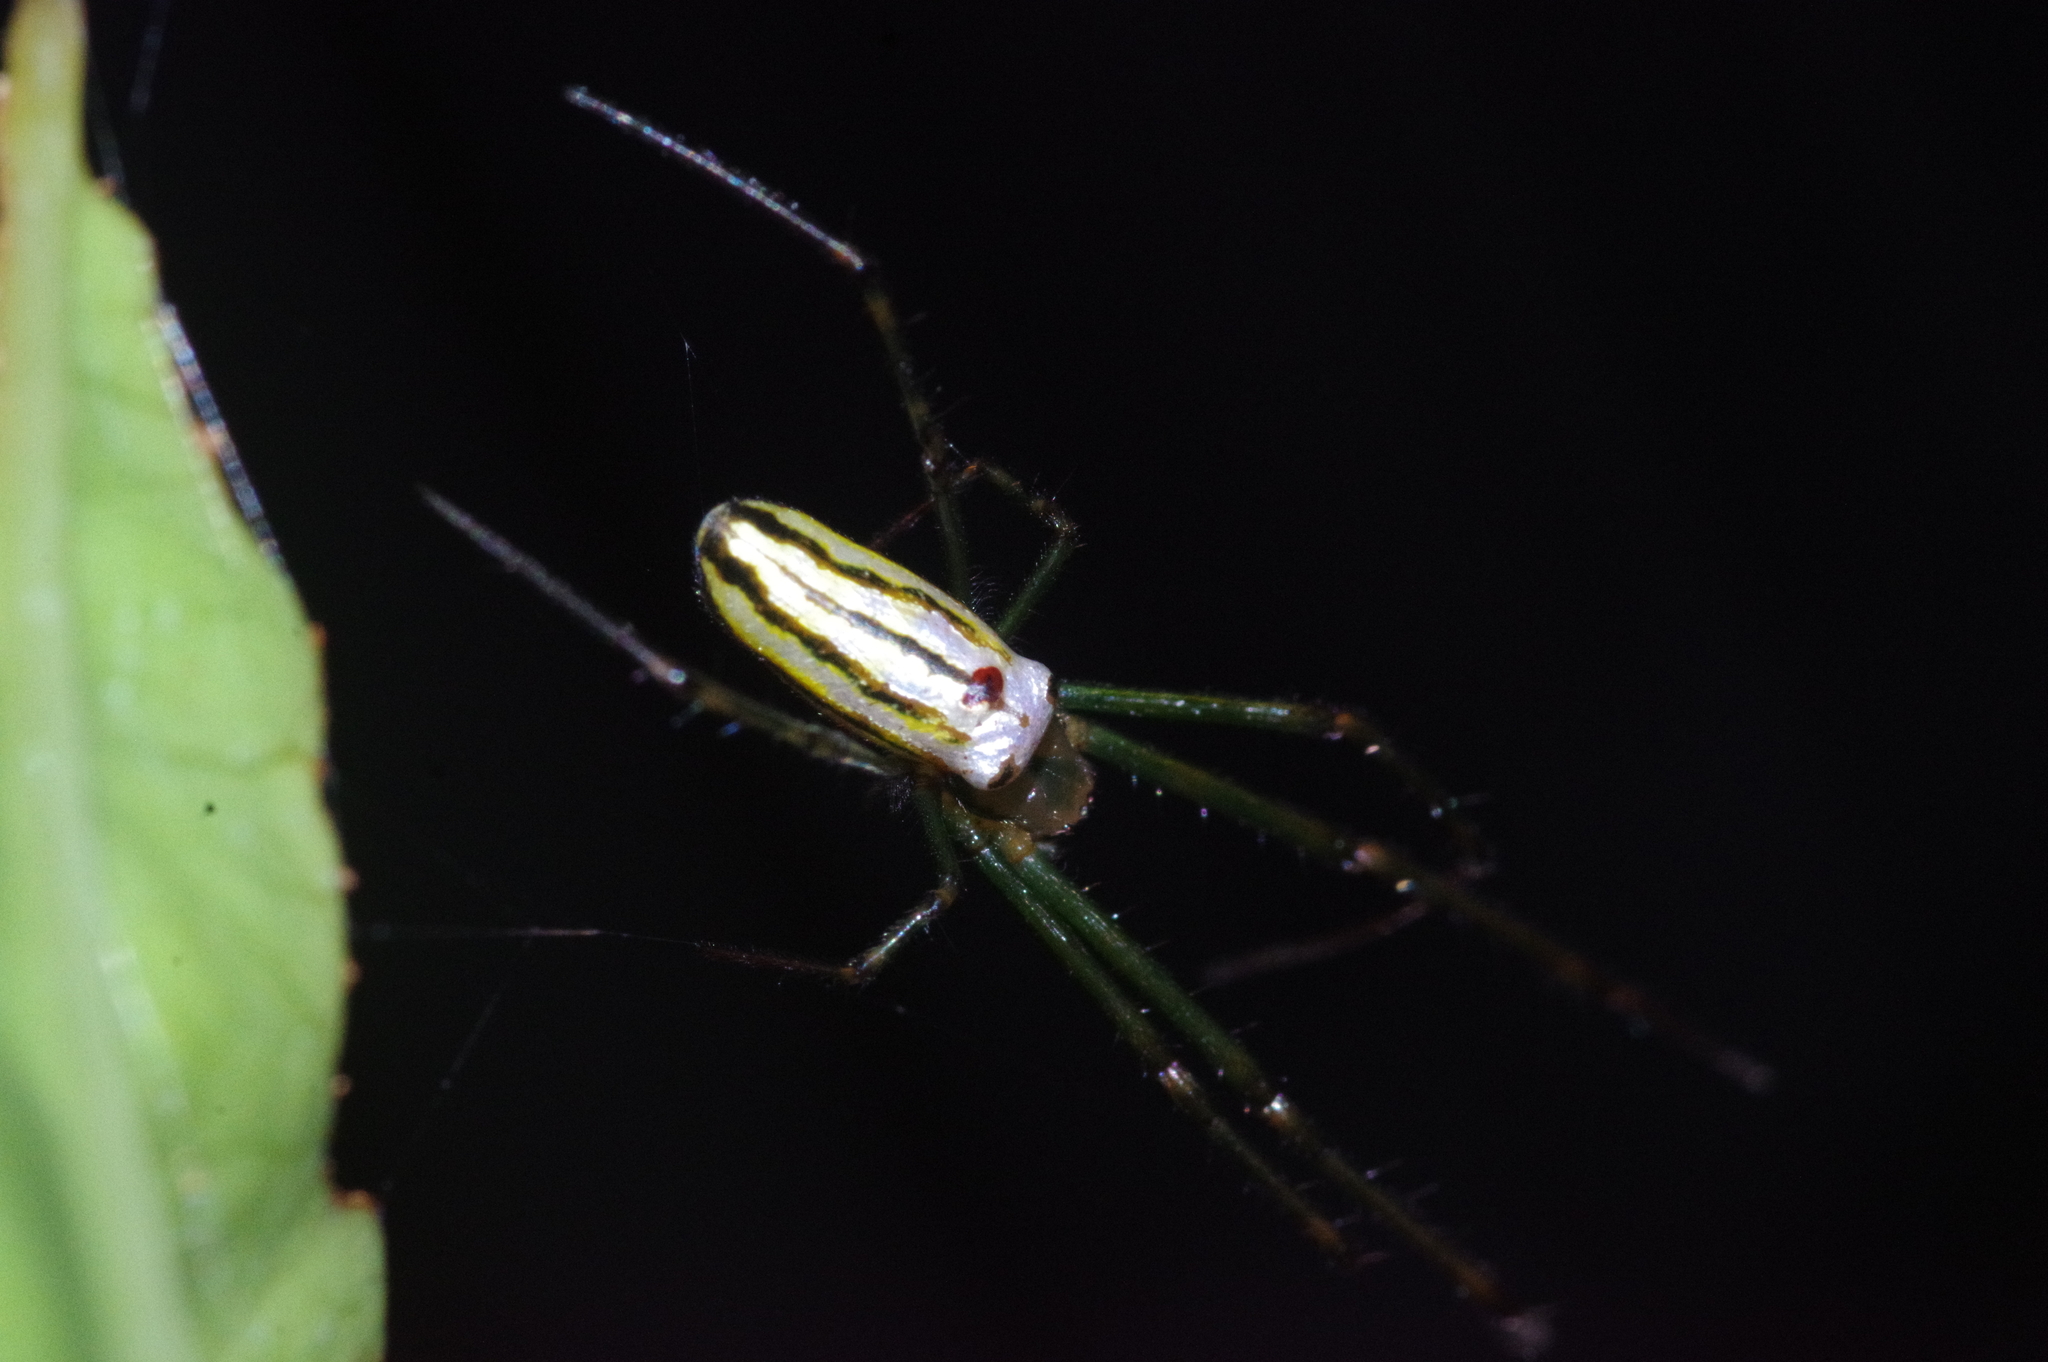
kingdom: Animalia
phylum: Arthropoda
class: Arachnida
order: Araneae
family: Tetragnathidae
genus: Leucauge
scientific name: Leucauge blanda
